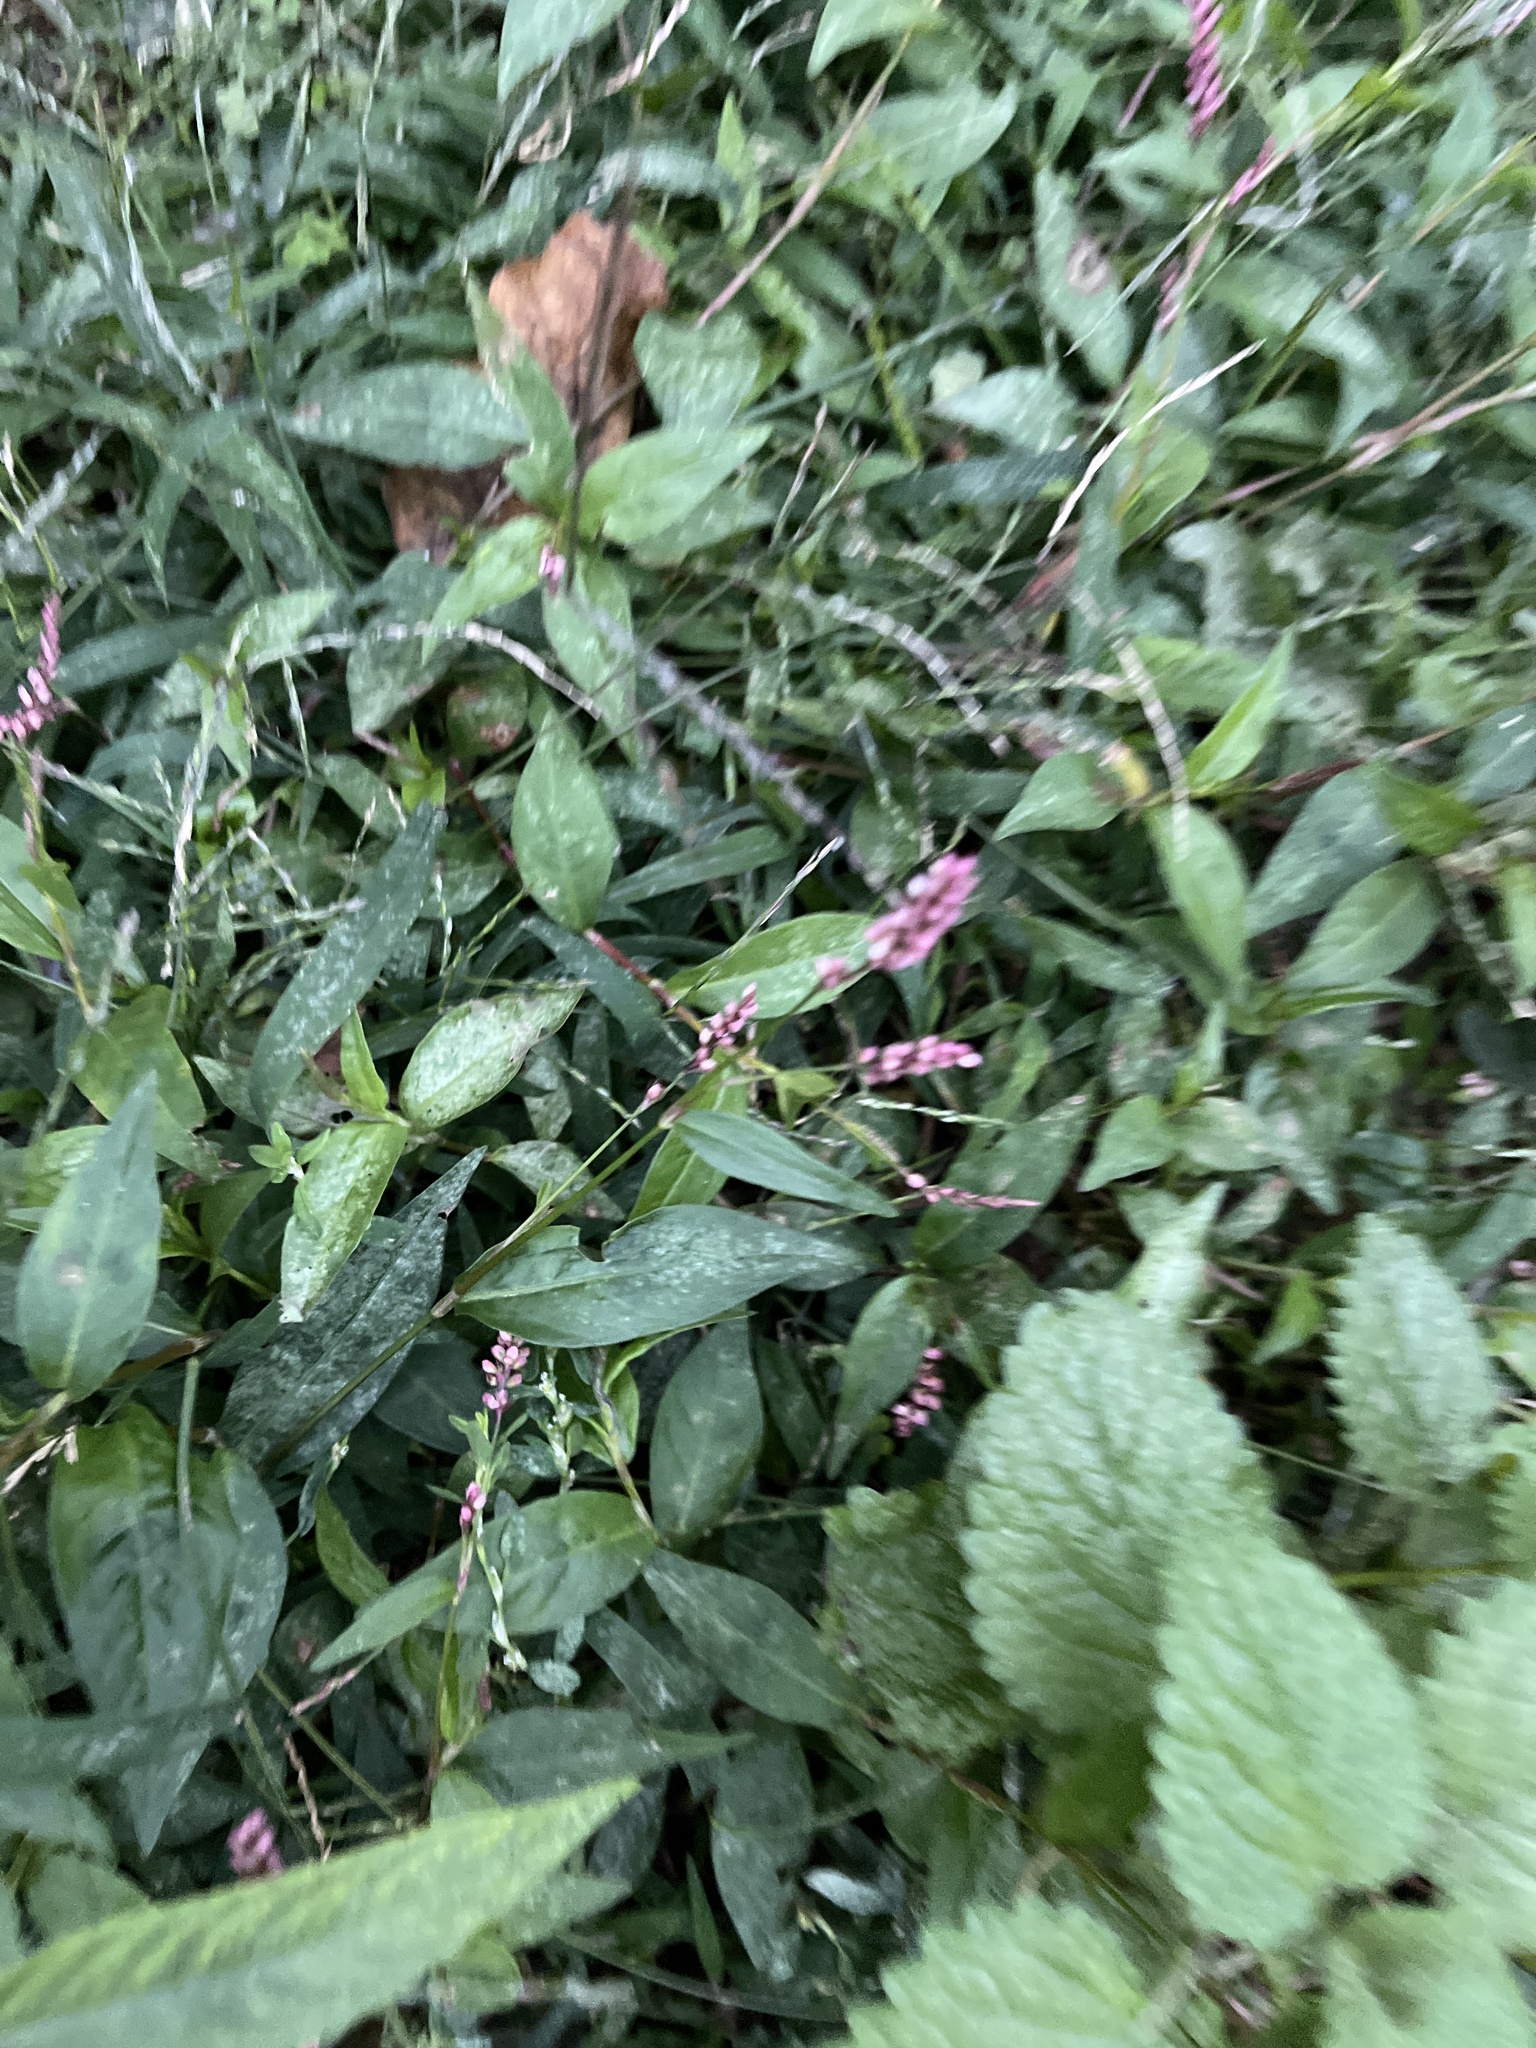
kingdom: Plantae
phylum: Tracheophyta
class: Magnoliopsida
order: Caryophyllales
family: Polygonaceae
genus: Persicaria
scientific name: Persicaria longiseta
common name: Bristly lady's-thumb
